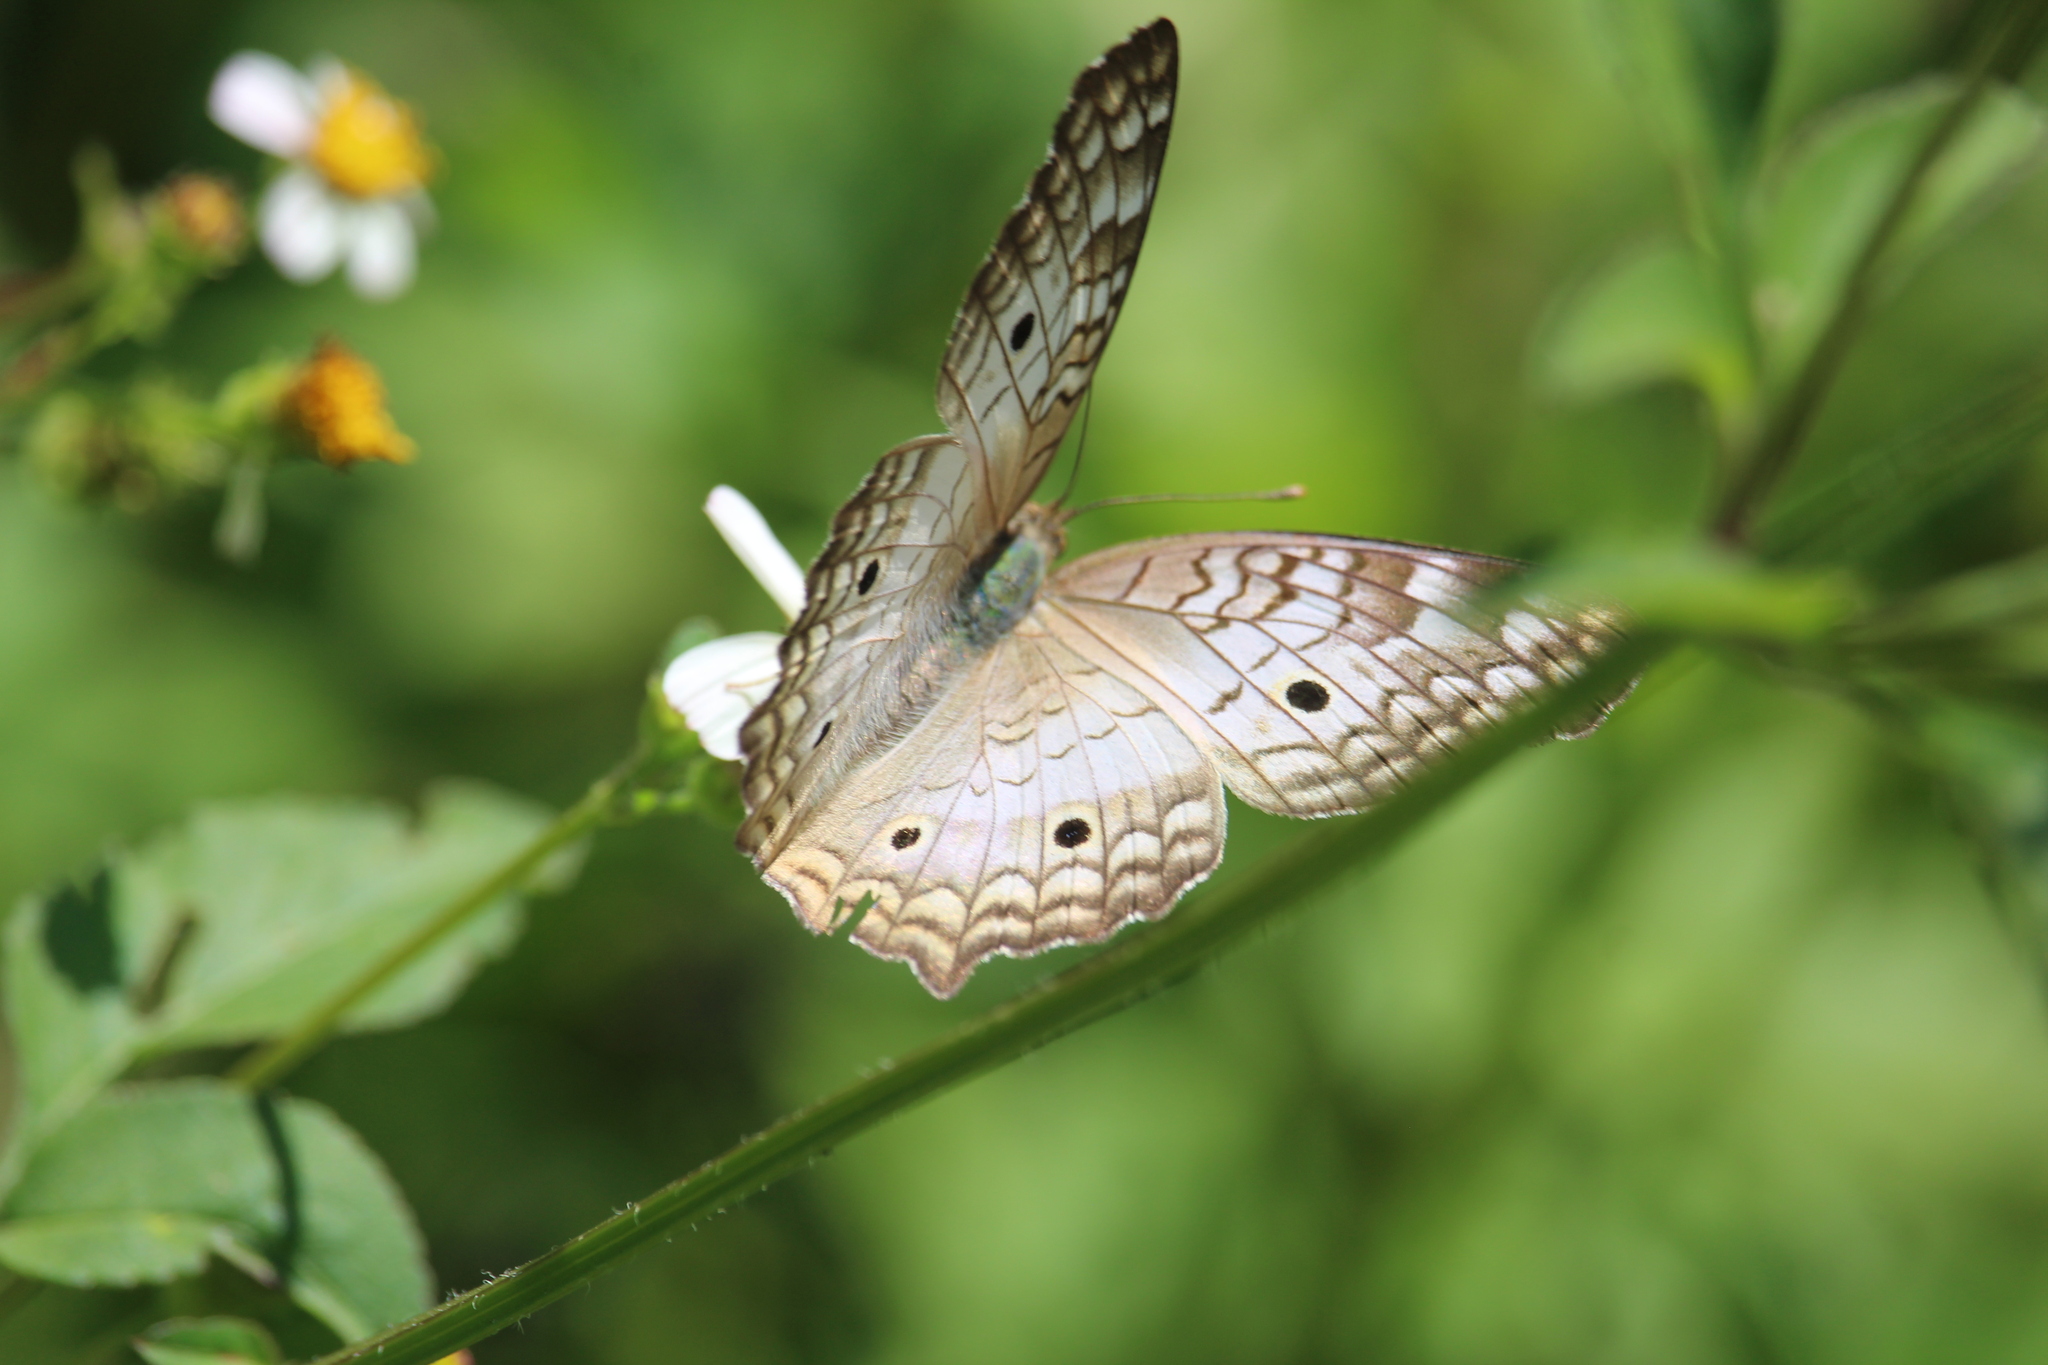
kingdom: Animalia
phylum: Arthropoda
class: Insecta
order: Lepidoptera
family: Nymphalidae
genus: Anartia
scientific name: Anartia jatrophae
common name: White peacock
